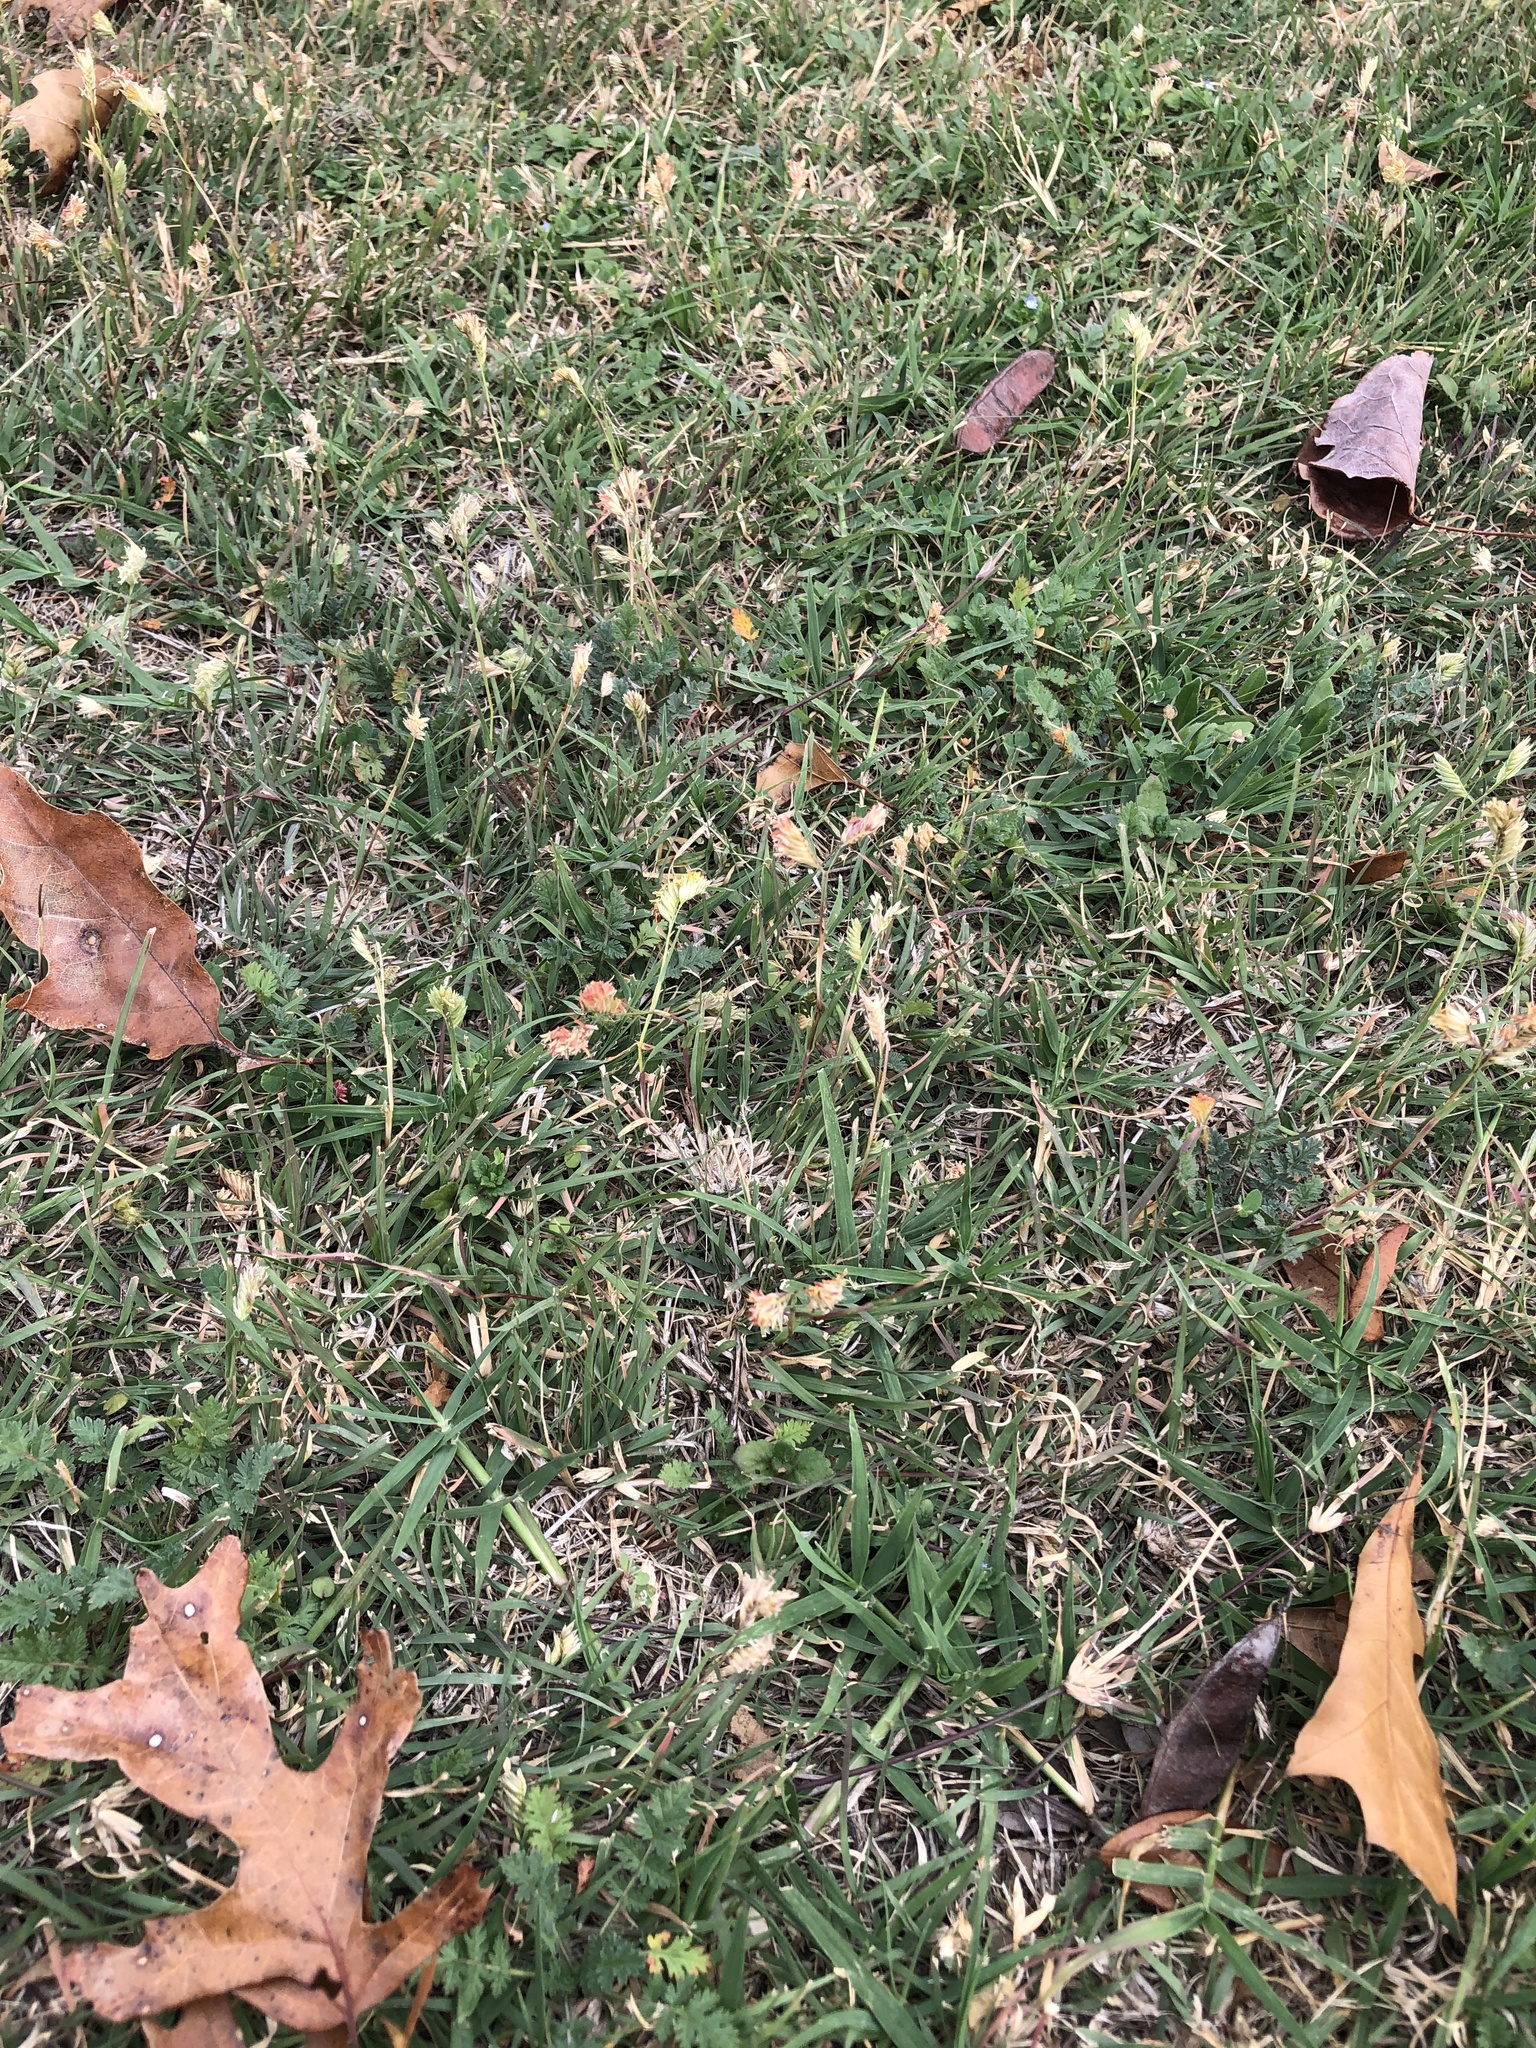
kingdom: Plantae
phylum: Tracheophyta
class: Liliopsida
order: Poales
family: Poaceae
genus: Bouteloua
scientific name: Bouteloua dactyloides
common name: Buffalo grass
